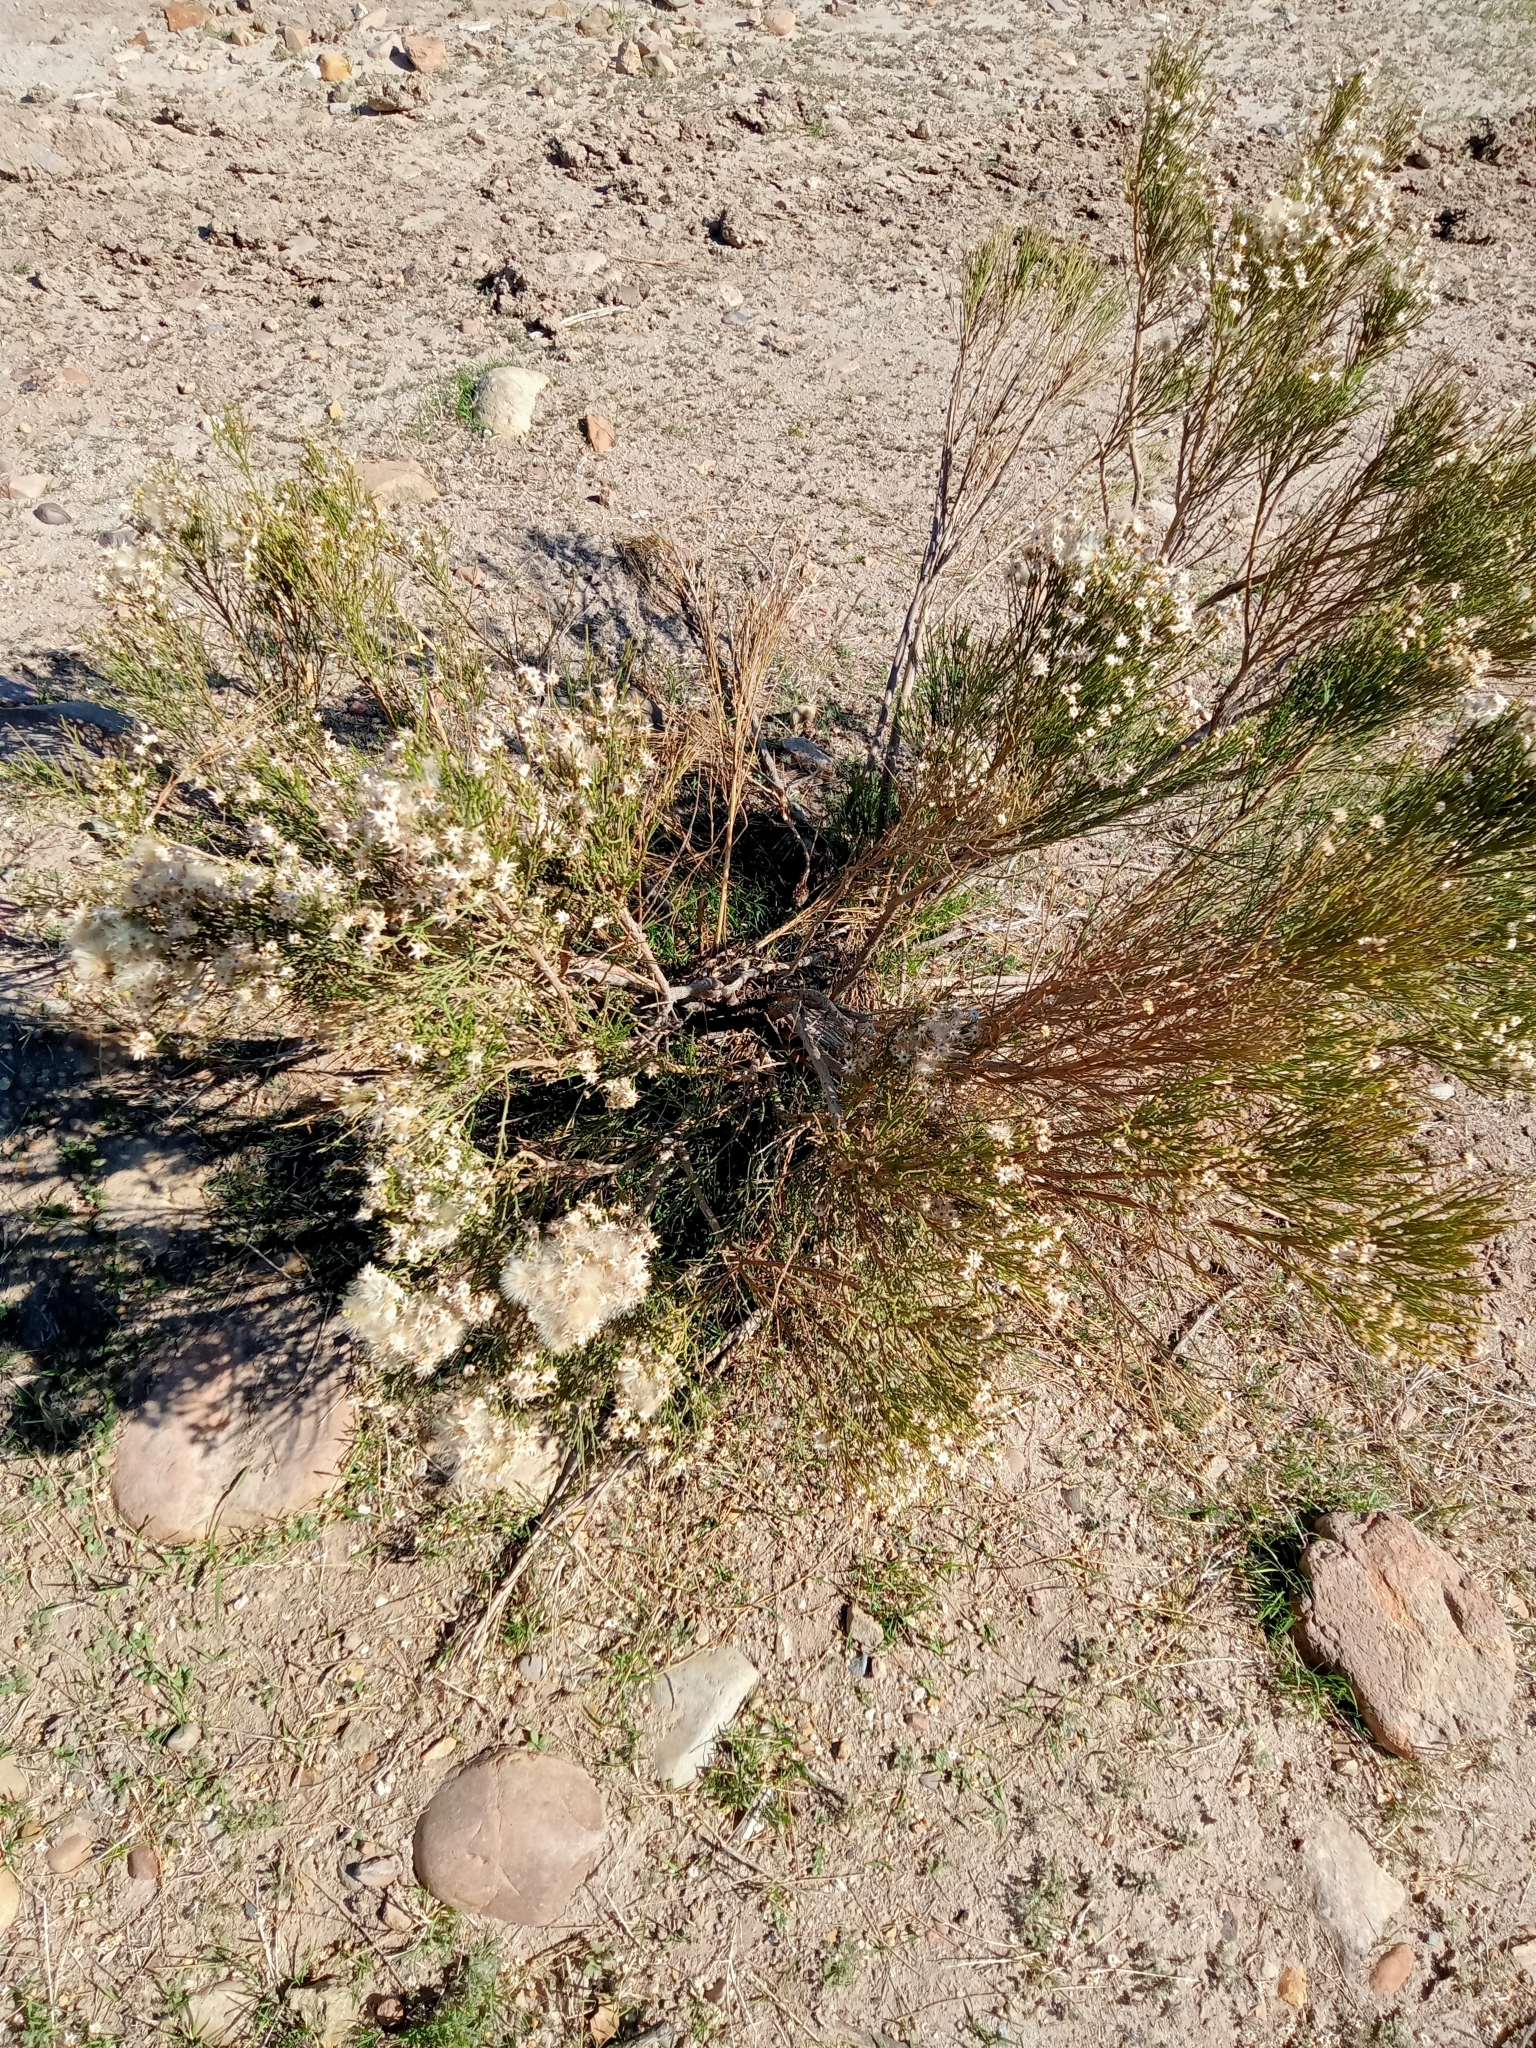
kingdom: Plantae
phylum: Tracheophyta
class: Magnoliopsida
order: Asterales
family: Asteraceae
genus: Baccharis
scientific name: Baccharis sarothroides
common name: Desert-broom
